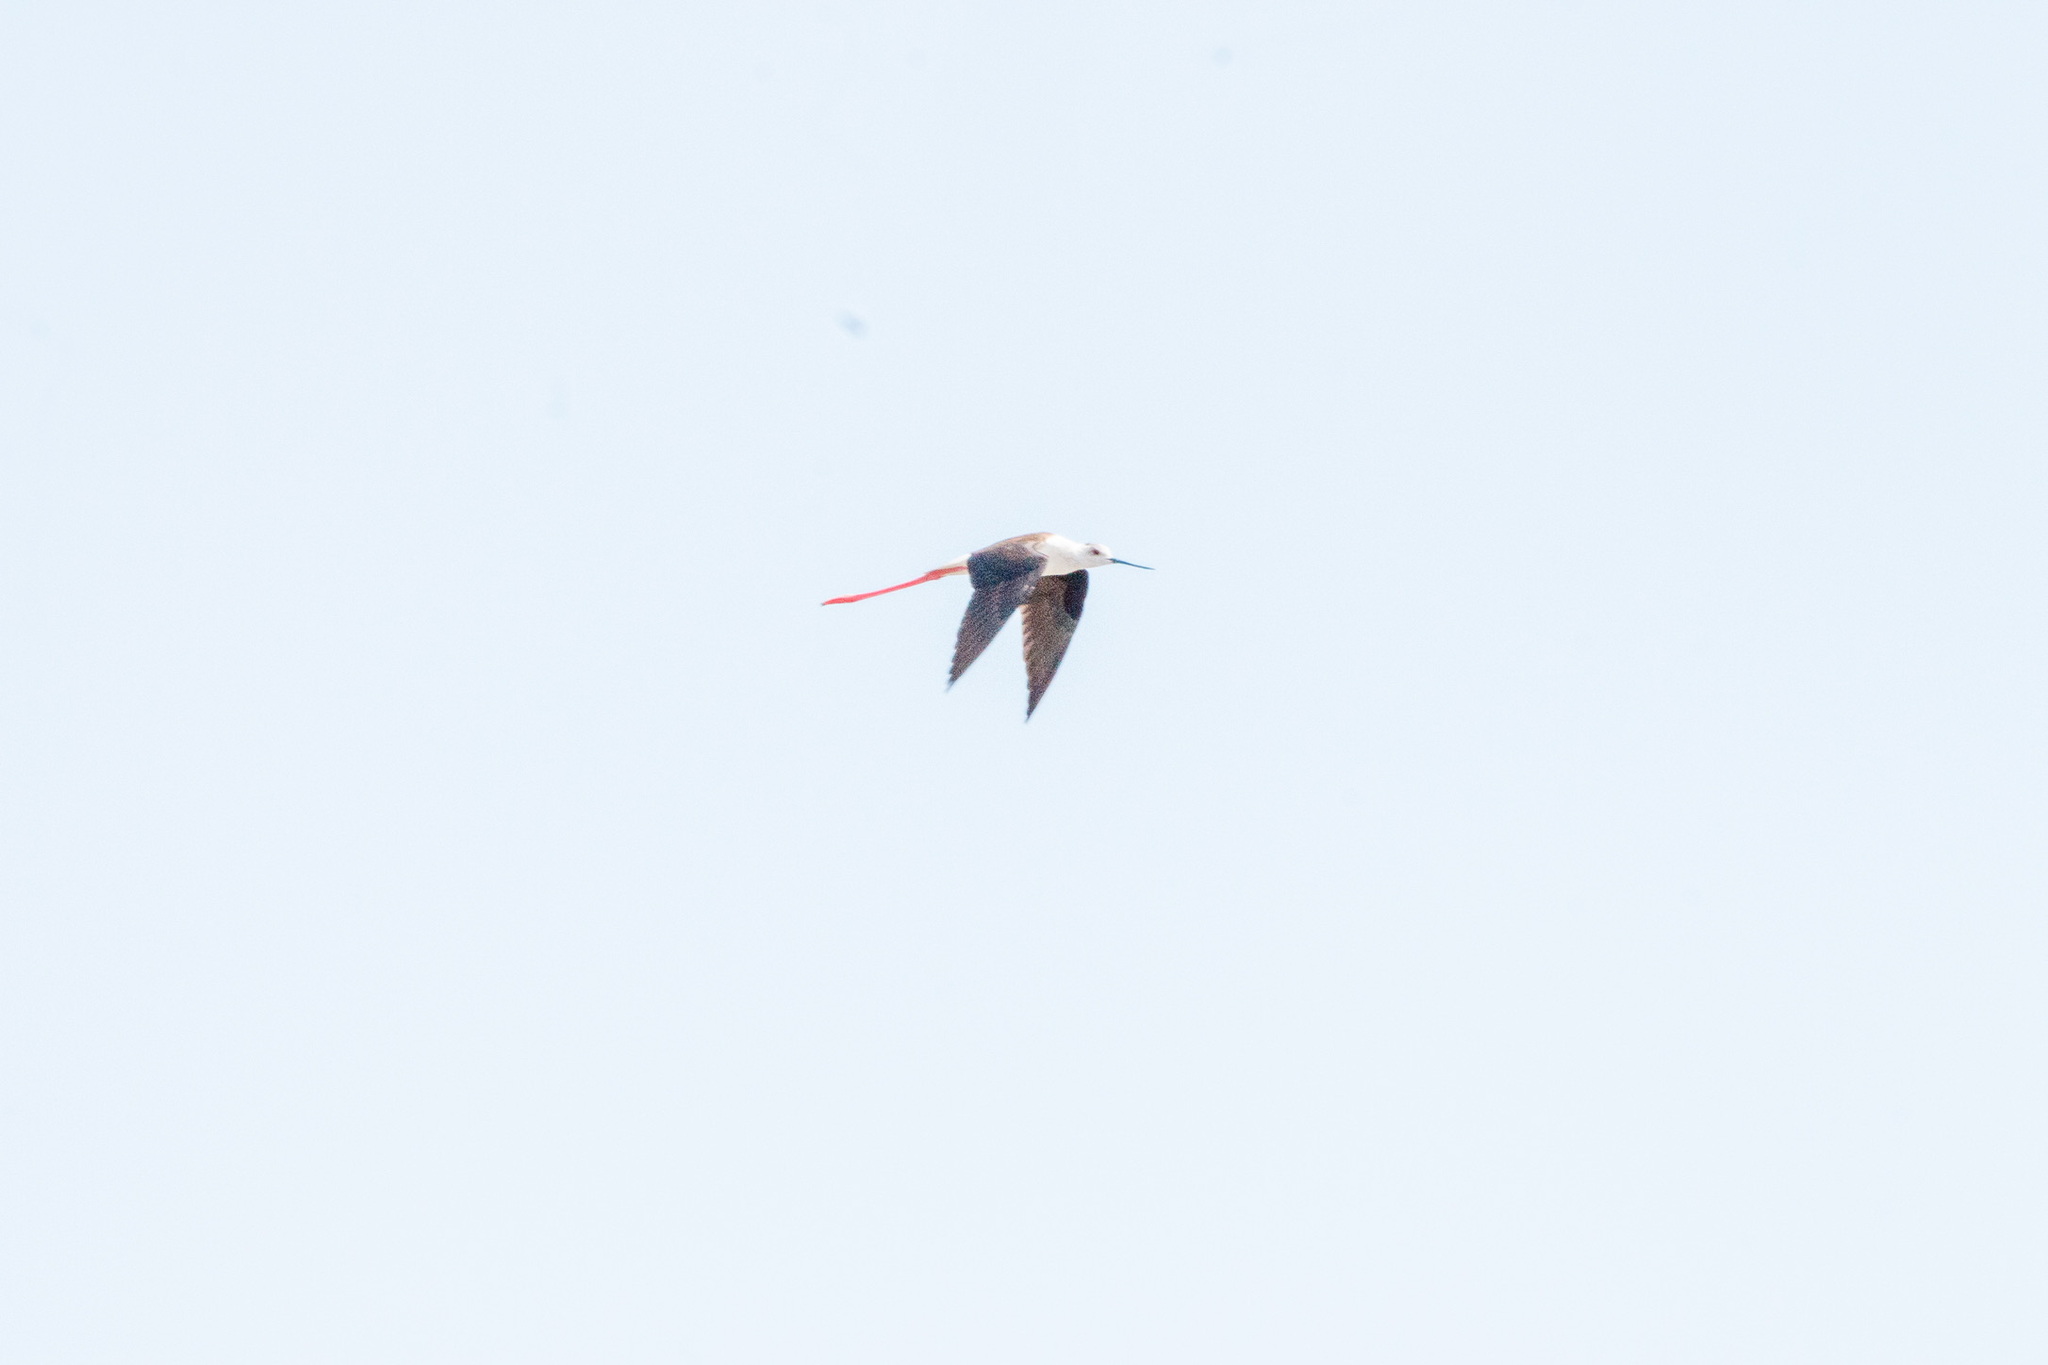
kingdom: Animalia
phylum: Chordata
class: Aves
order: Charadriiformes
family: Recurvirostridae
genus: Himantopus
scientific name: Himantopus himantopus
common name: Black-winged stilt
